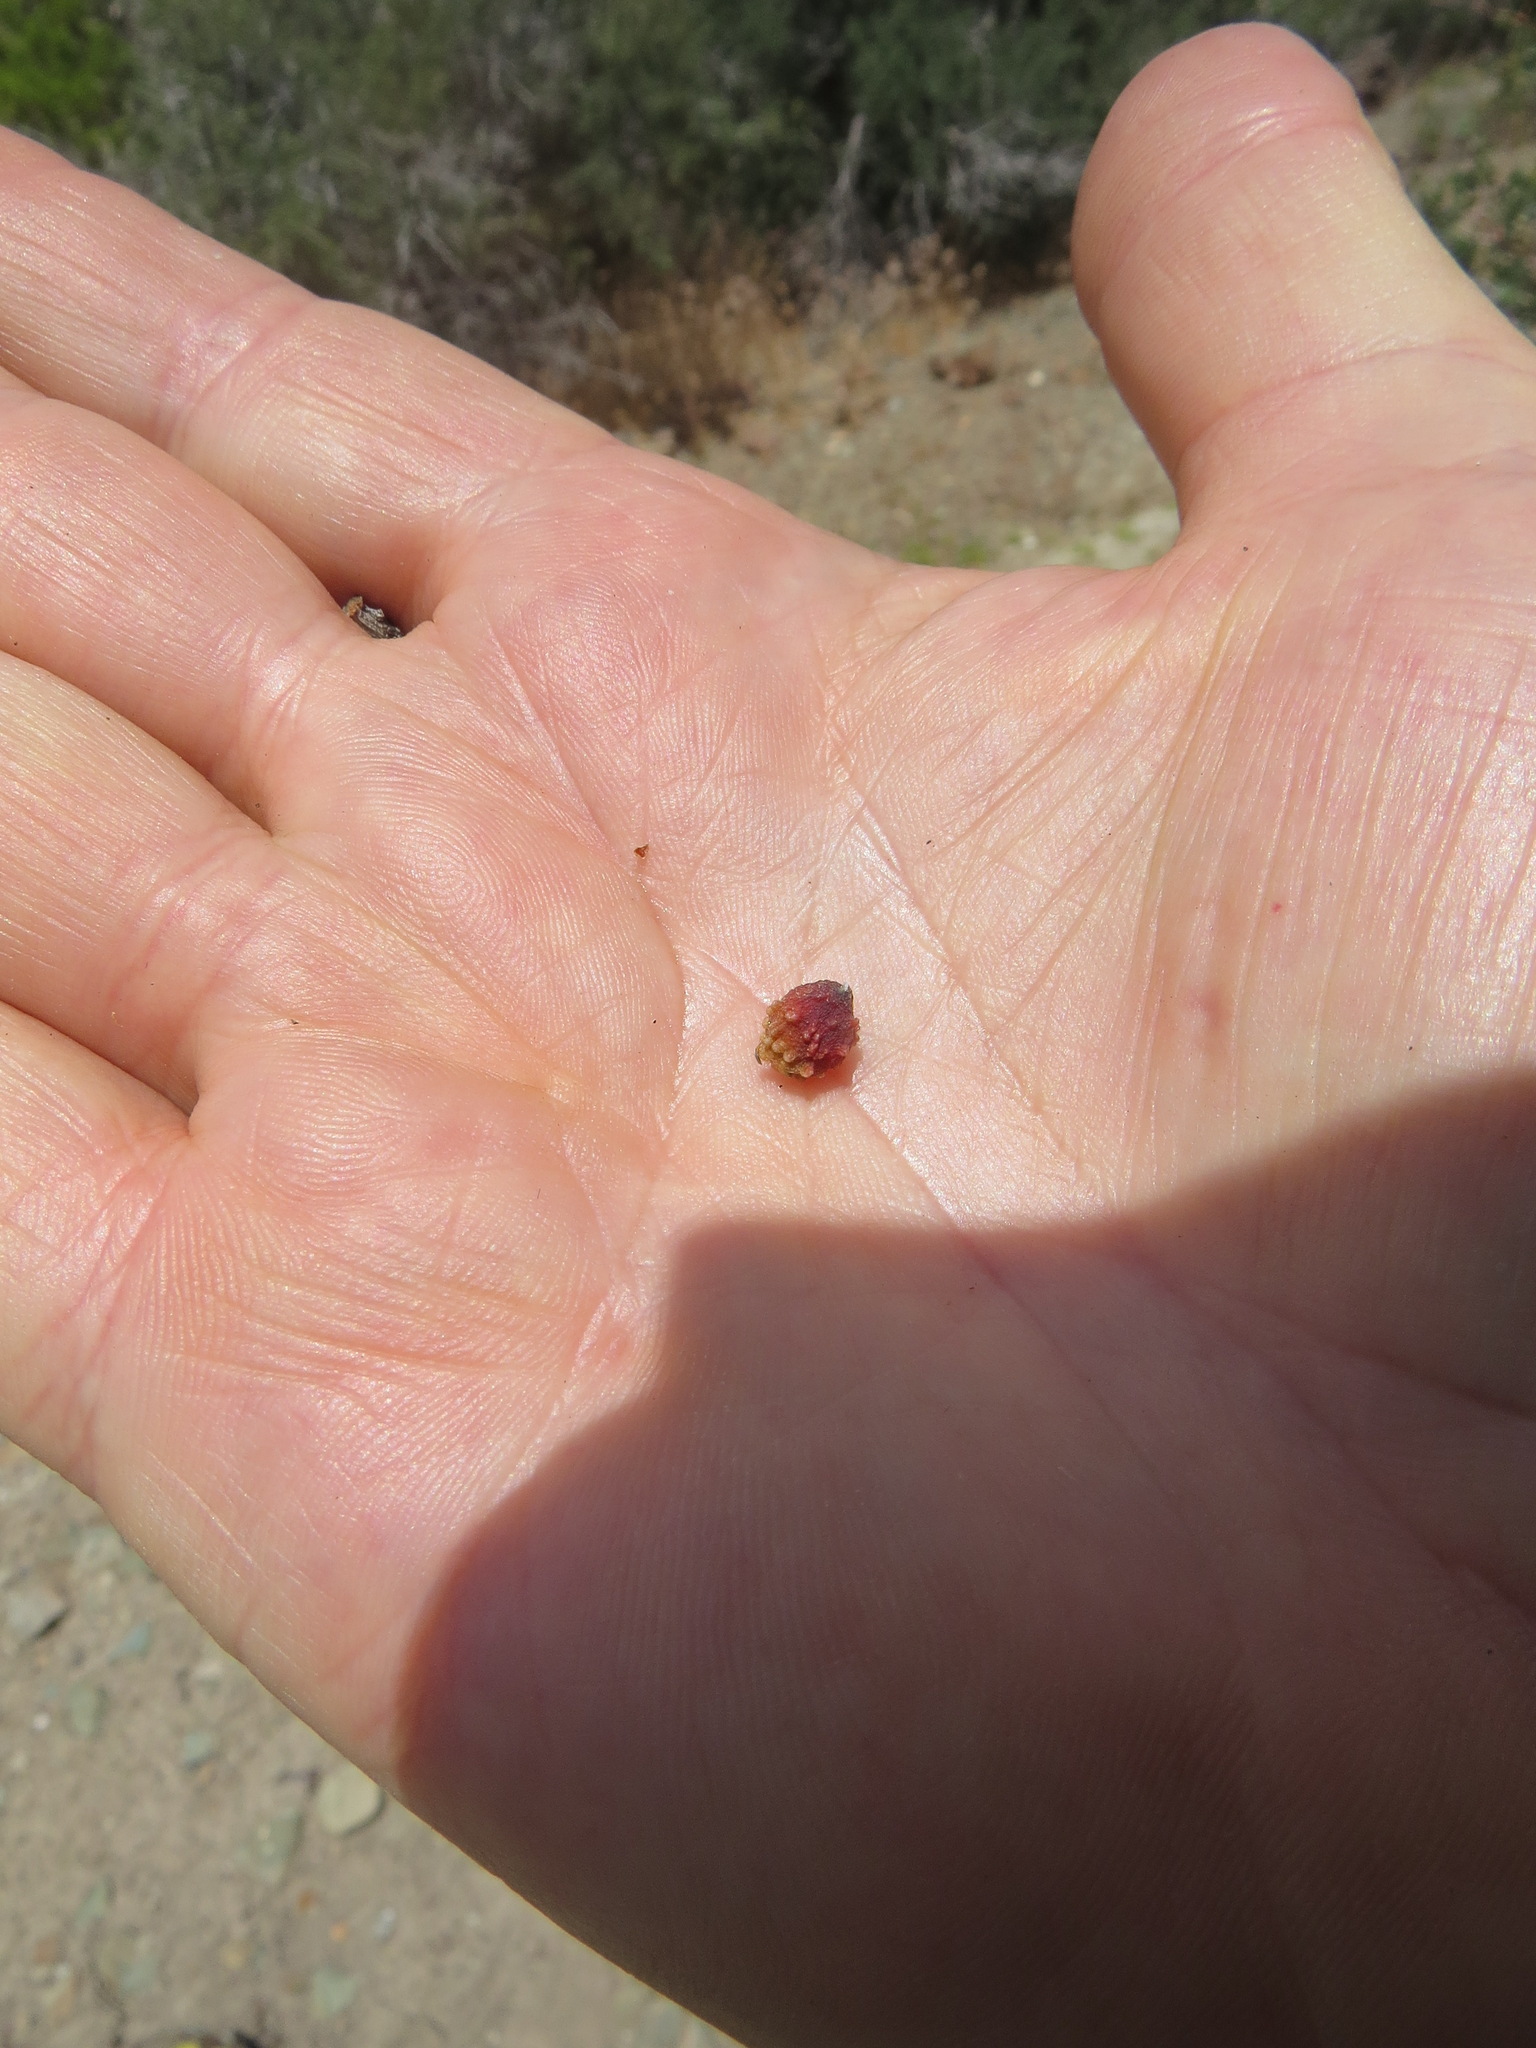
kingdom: Animalia
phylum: Arthropoda
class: Insecta
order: Hymenoptera
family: Cynipidae
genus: Cynips
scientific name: Cynips douglasi
